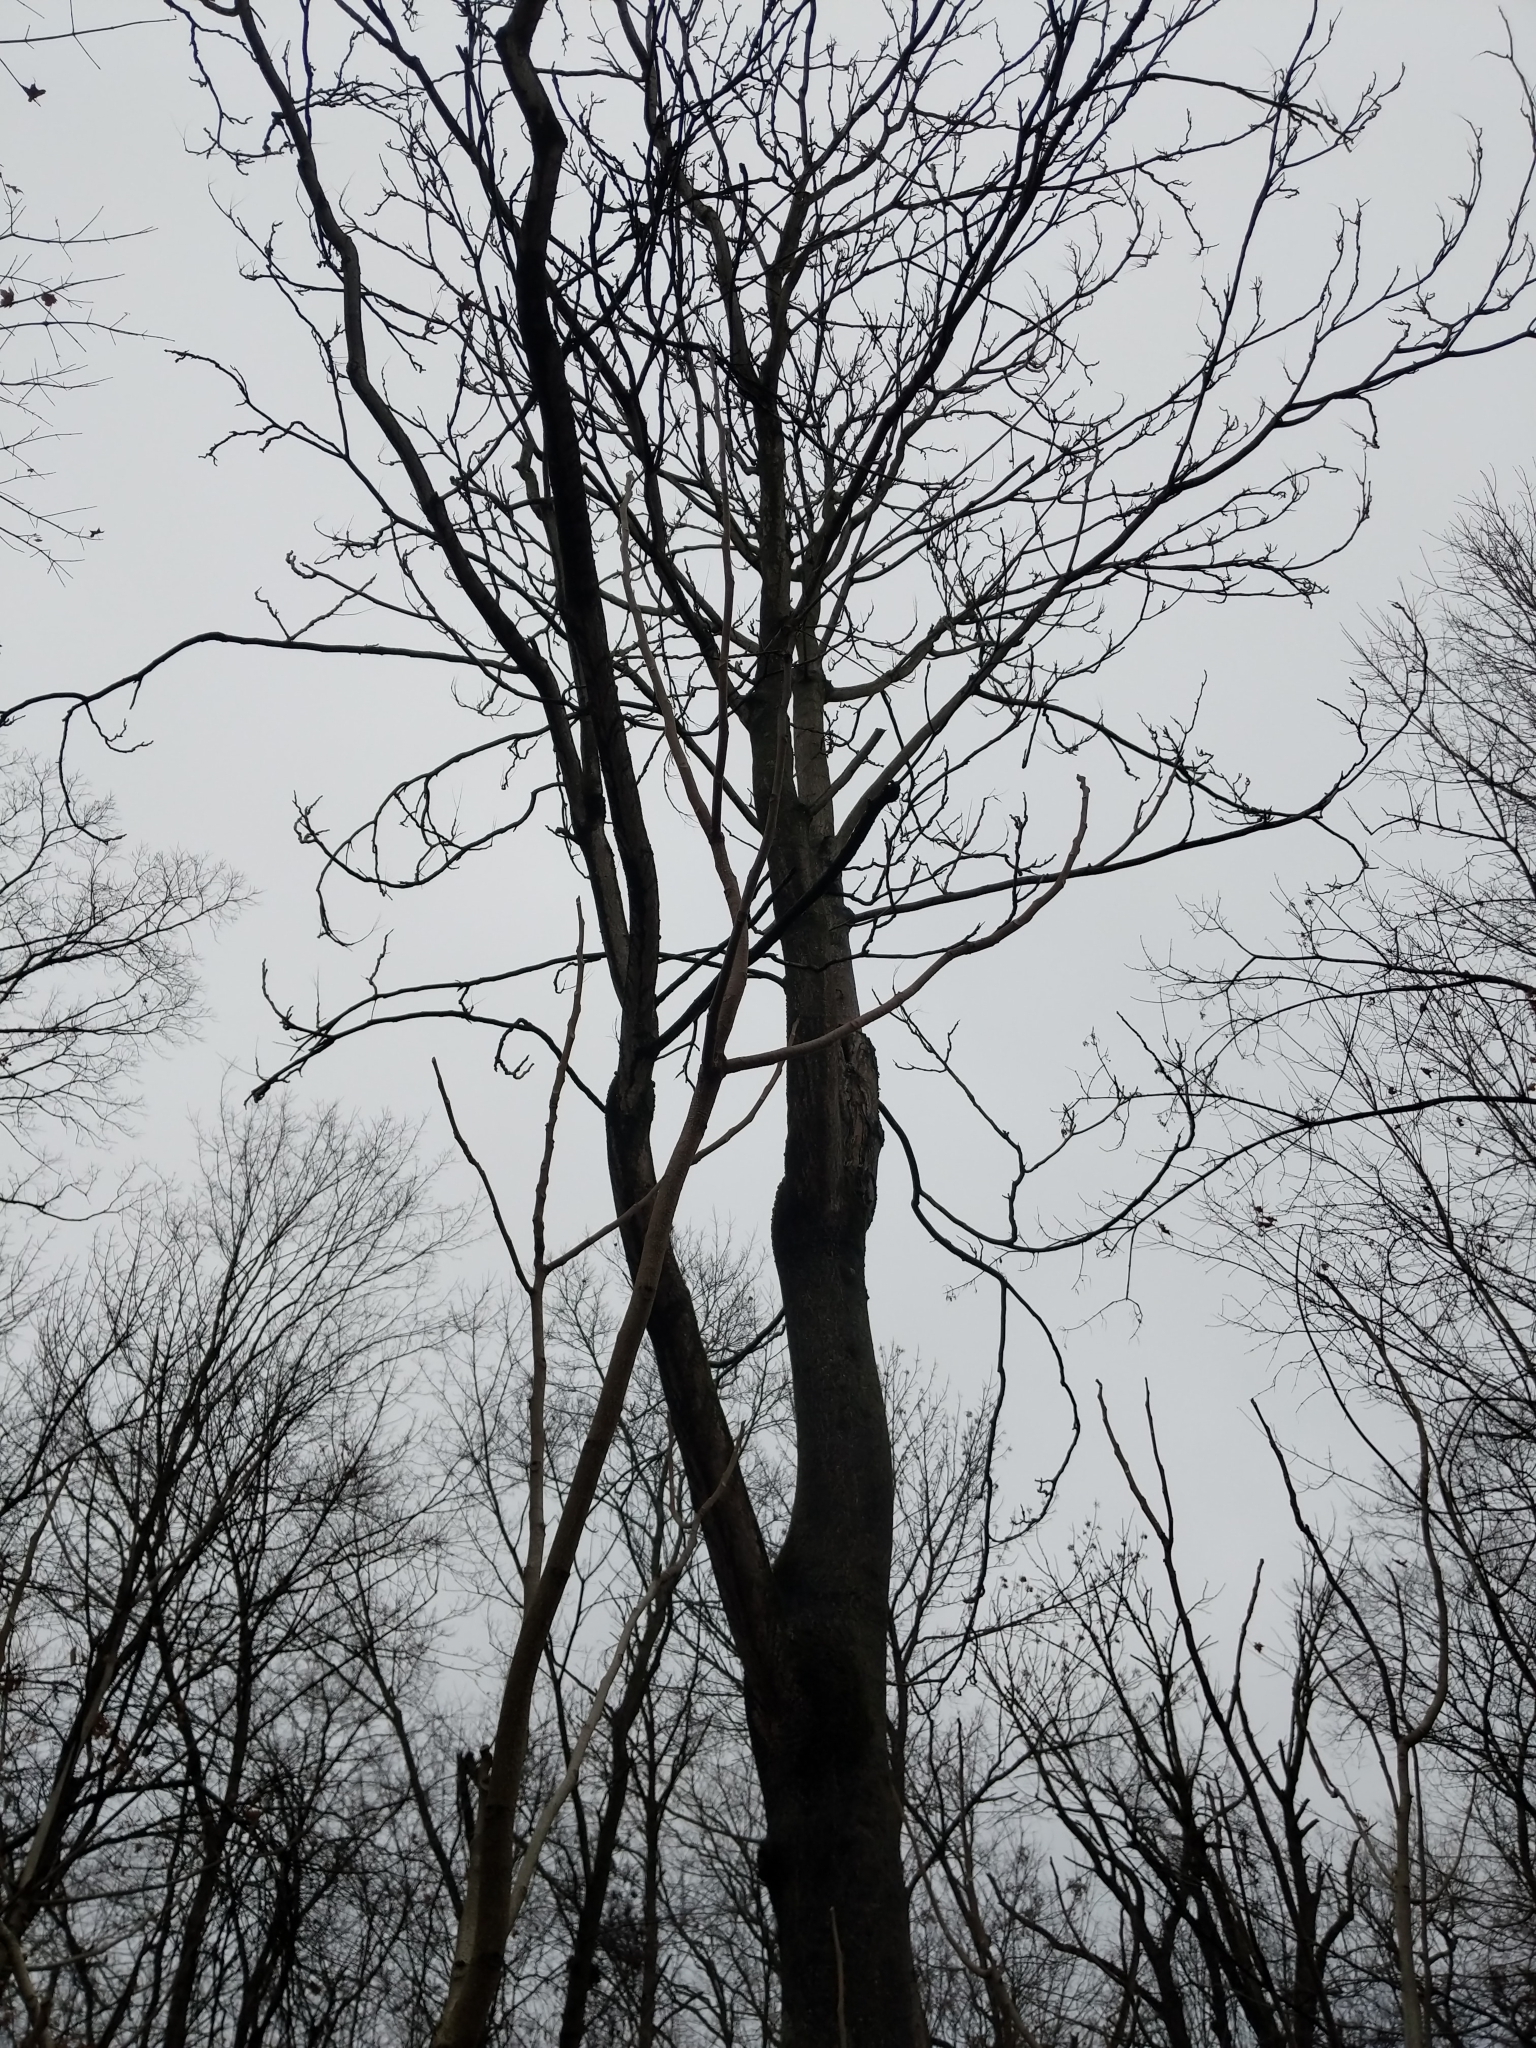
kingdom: Plantae
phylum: Tracheophyta
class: Magnoliopsida
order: Sapindales
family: Simaroubaceae
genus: Ailanthus
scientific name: Ailanthus altissima
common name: Tree-of-heaven
